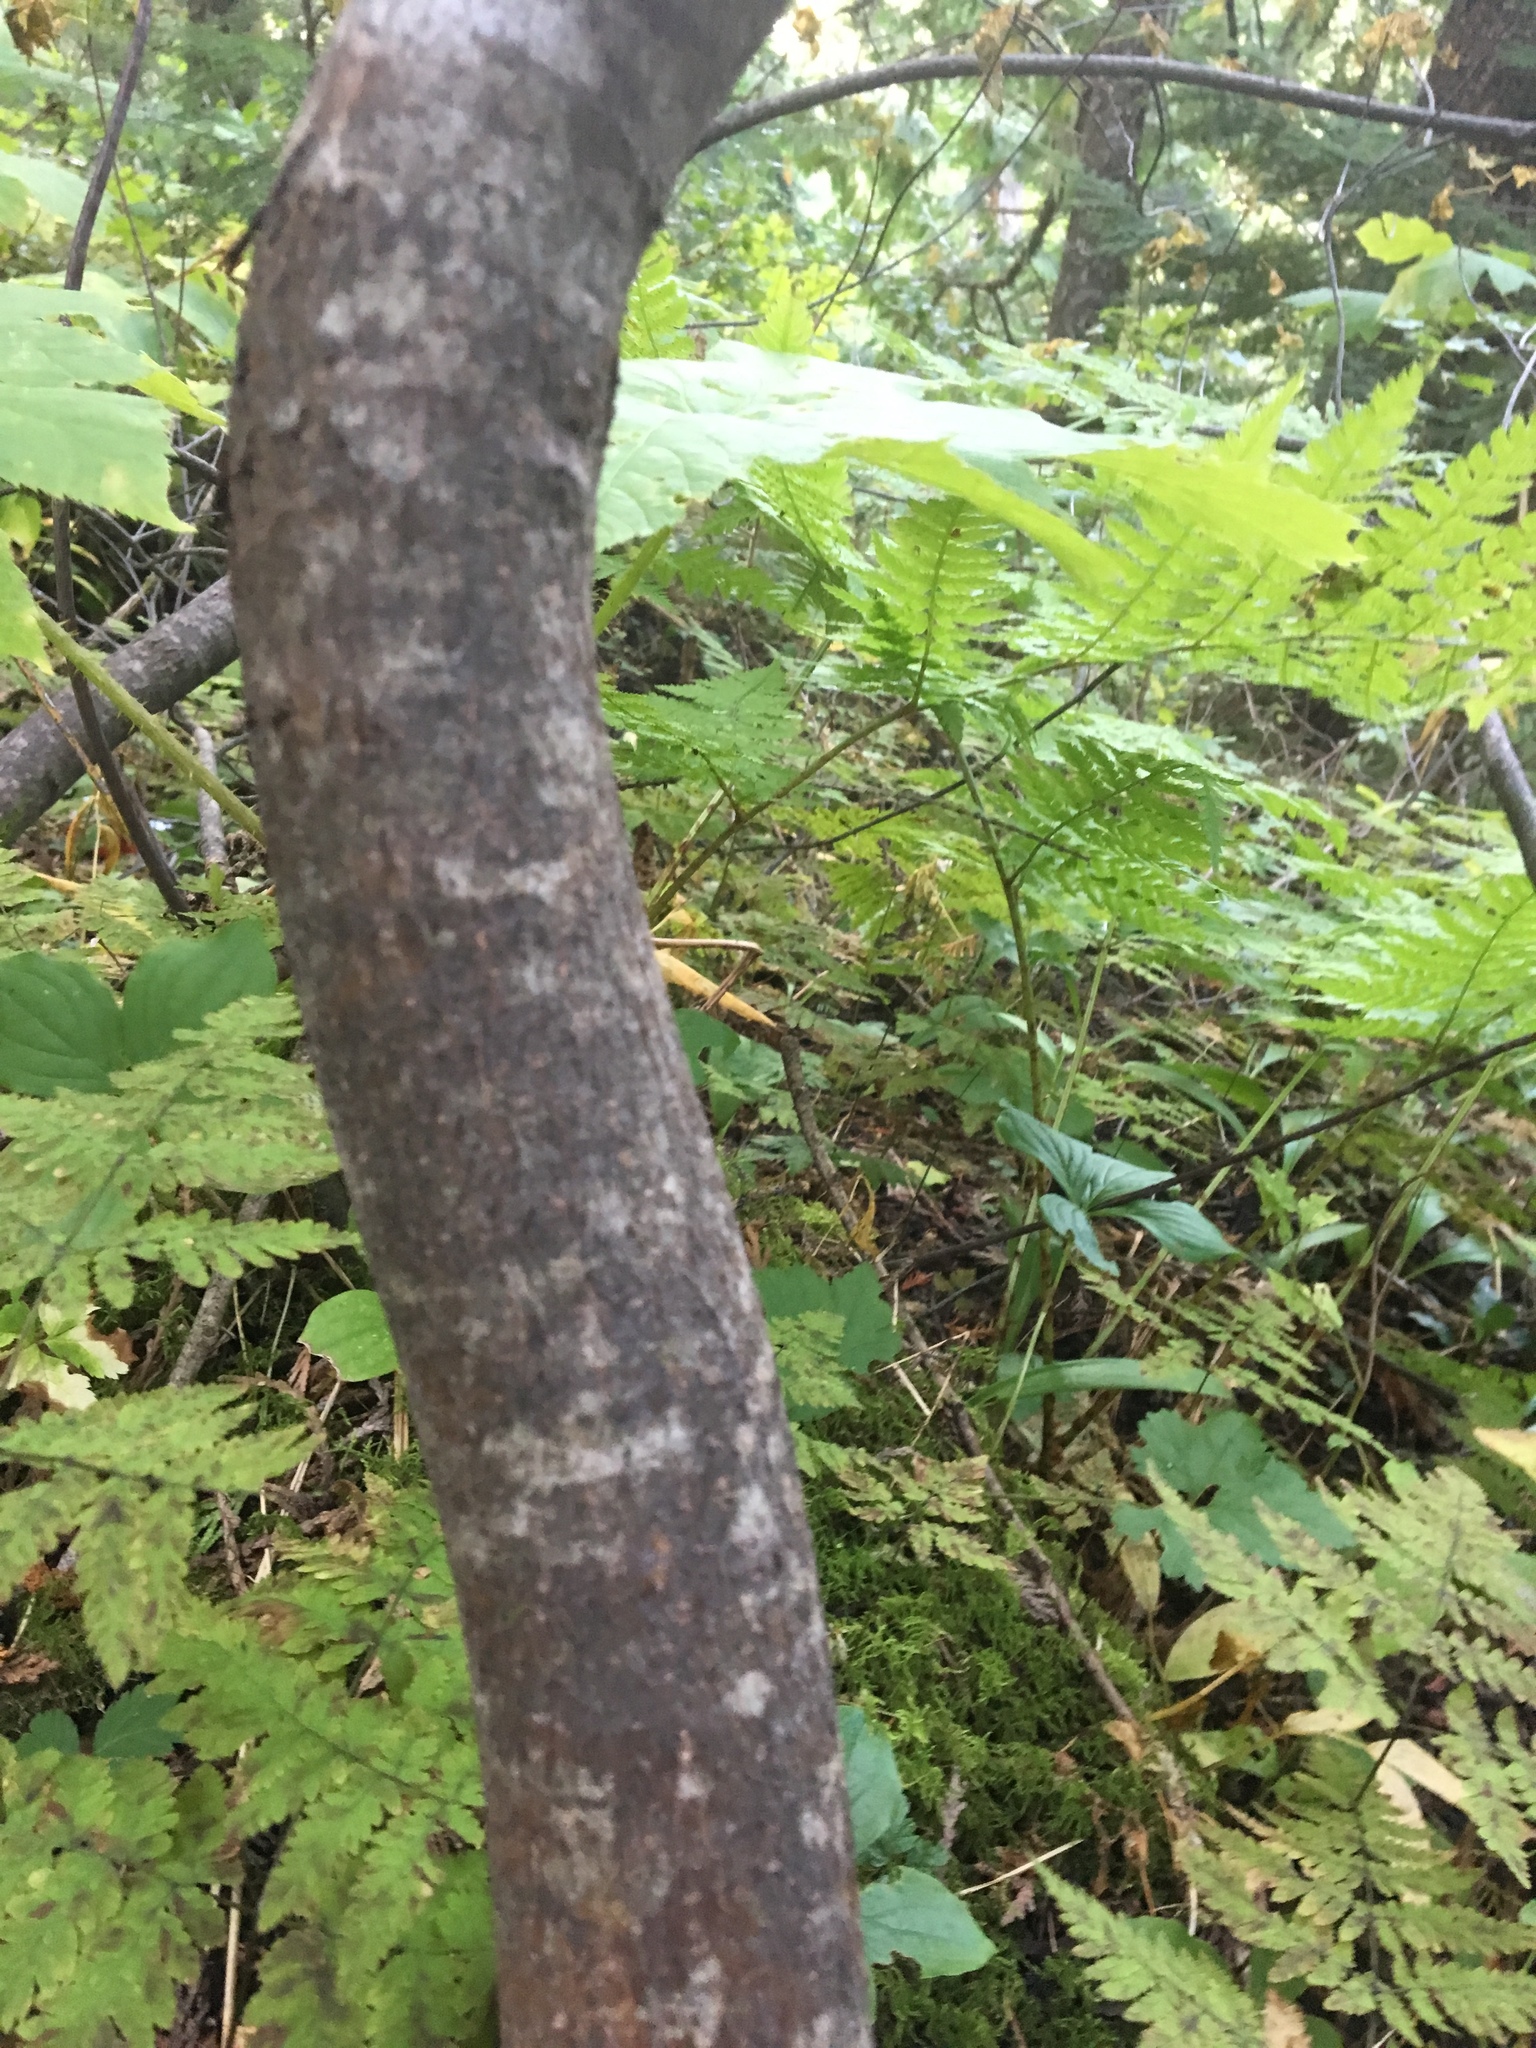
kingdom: Plantae
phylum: Tracheophyta
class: Magnoliopsida
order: Sapindales
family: Sapindaceae
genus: Acer
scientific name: Acer glabrum
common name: Rocky mountain maple
